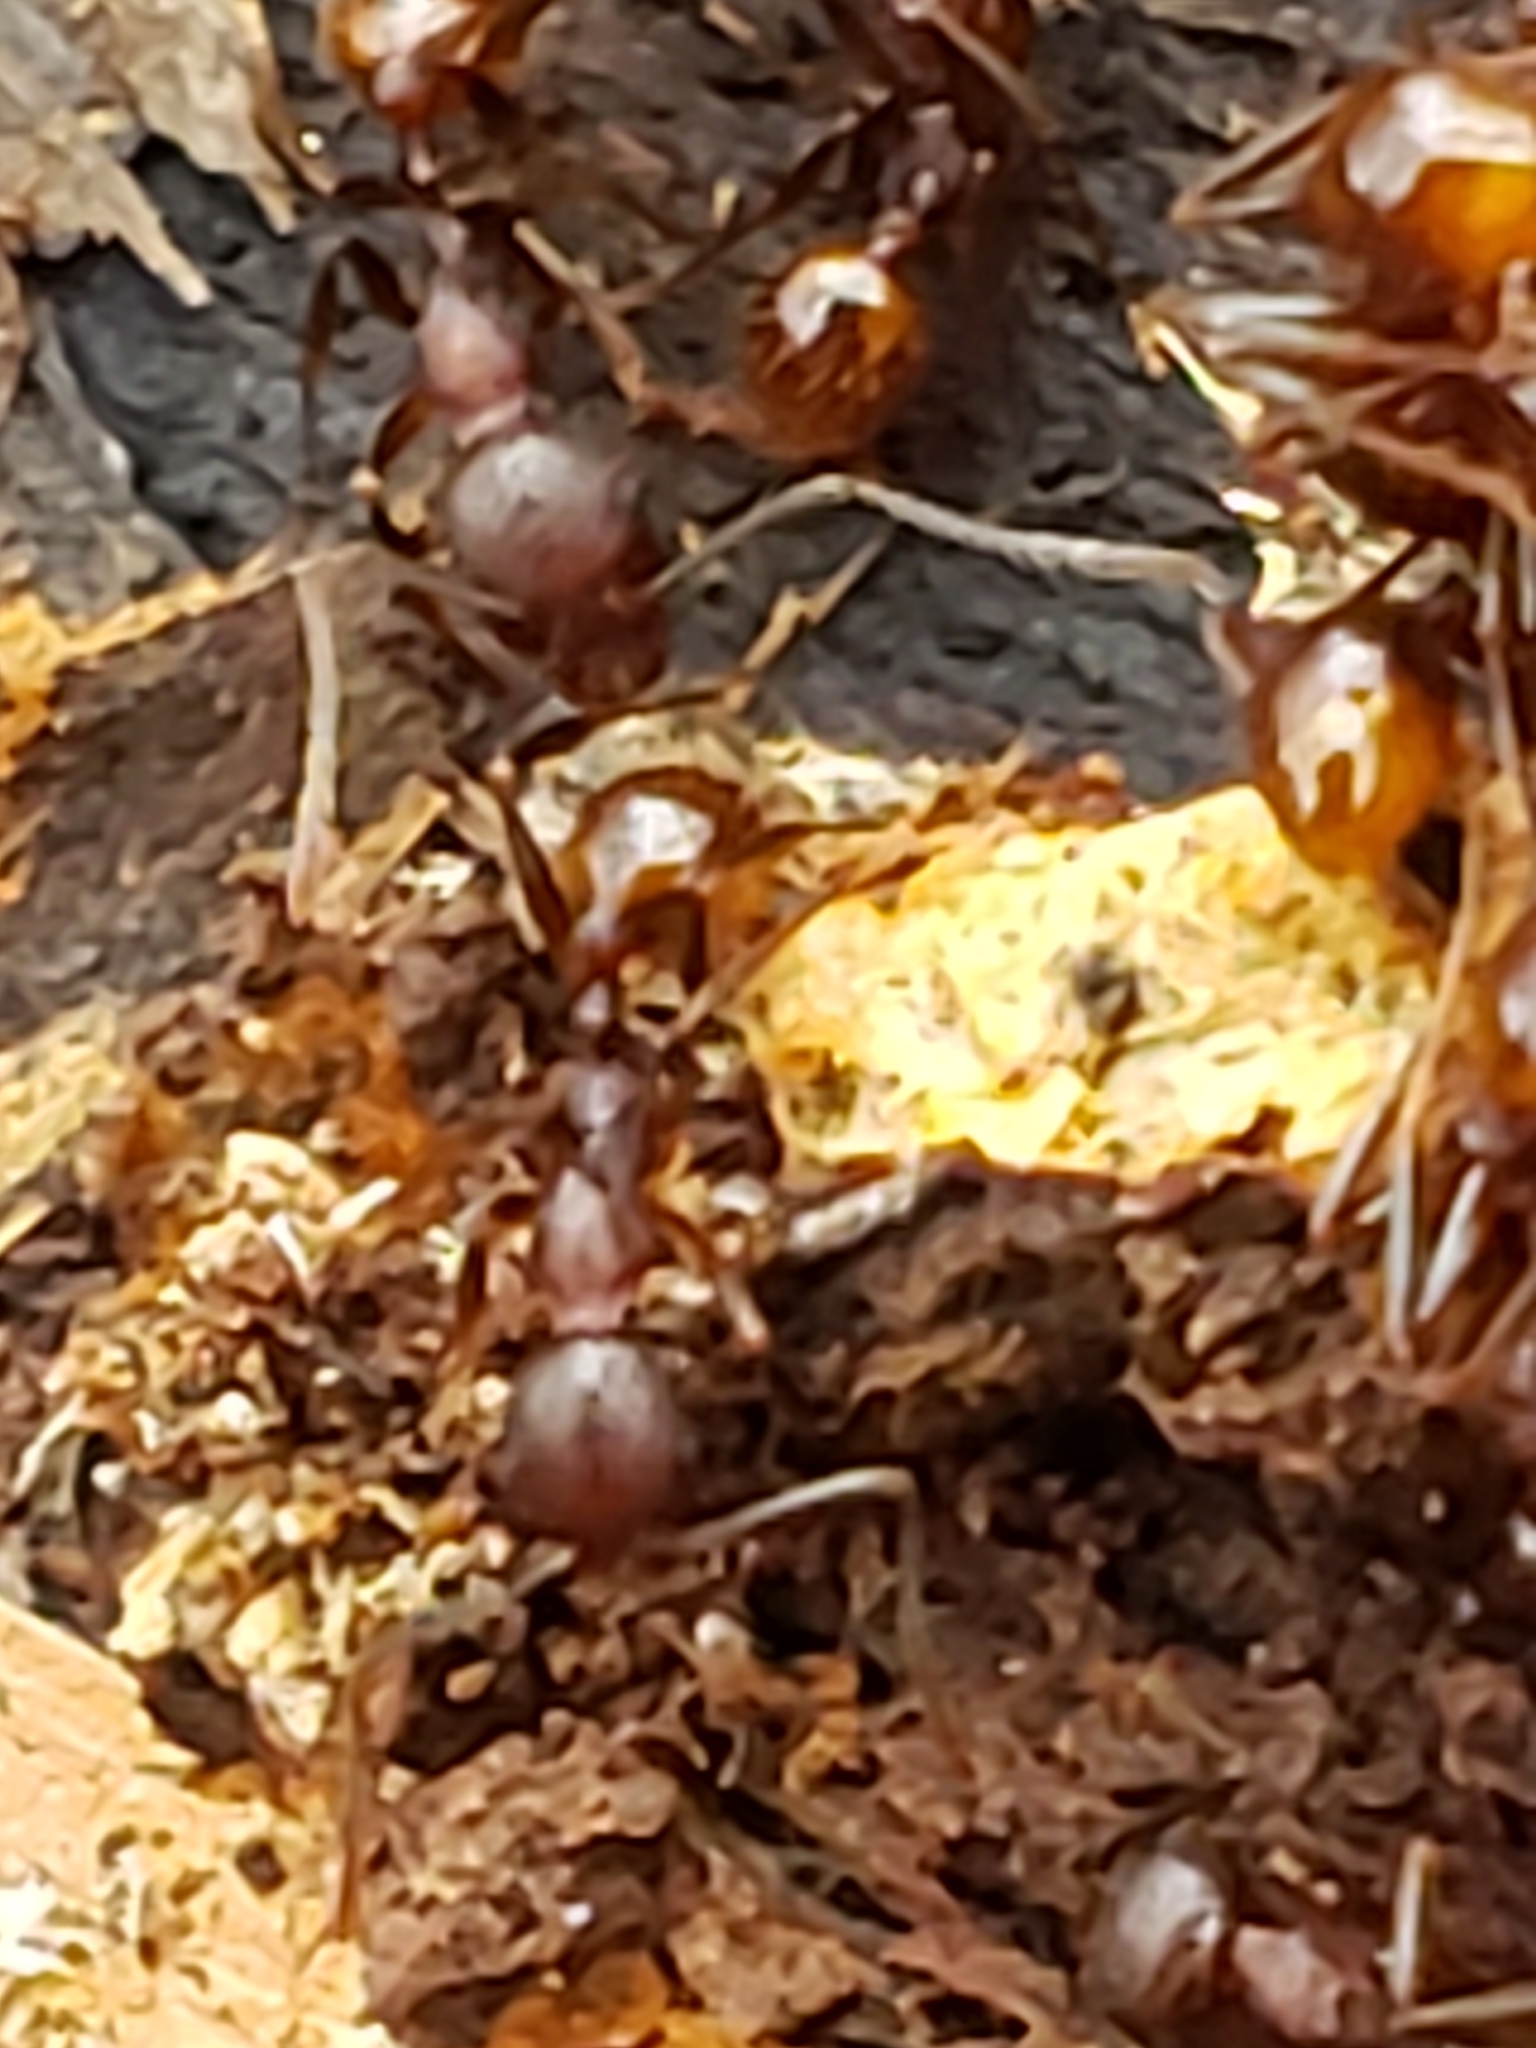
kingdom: Animalia
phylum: Arthropoda
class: Insecta
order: Hymenoptera
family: Formicidae
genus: Aphaenogaster
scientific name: Aphaenogaster fulva
